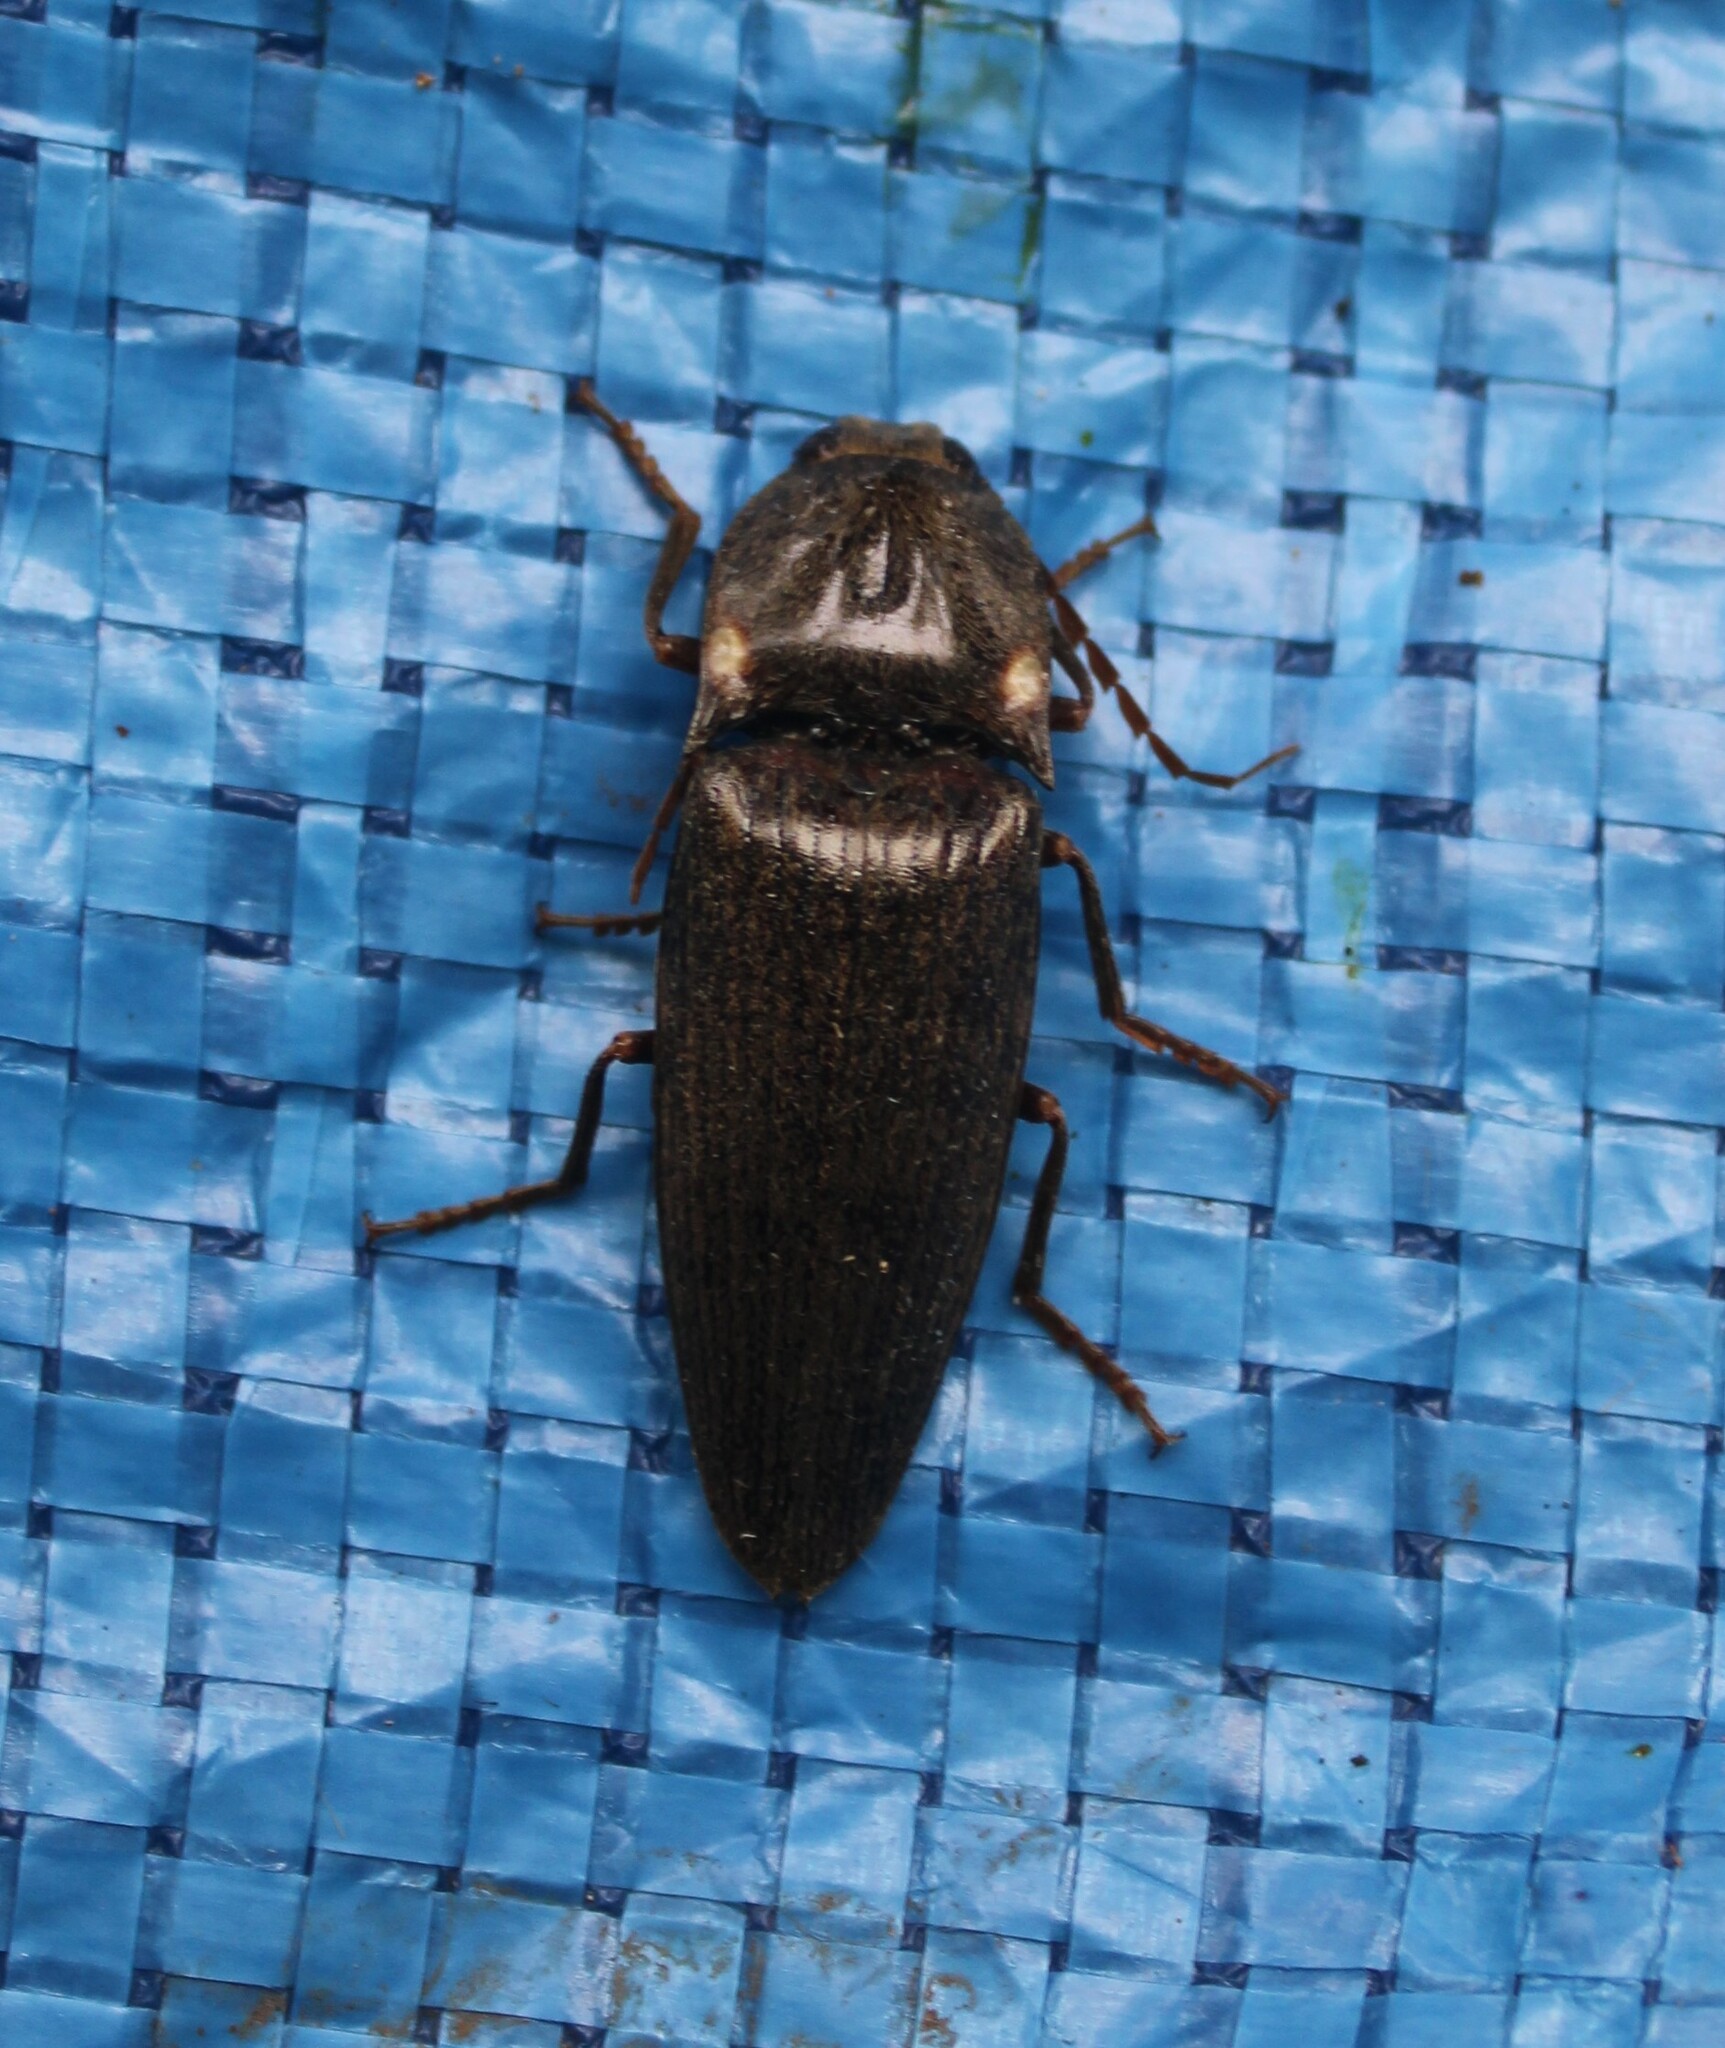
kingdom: Animalia
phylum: Arthropoda
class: Insecta
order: Coleoptera
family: Elateridae
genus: Photophorus
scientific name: Photophorus
